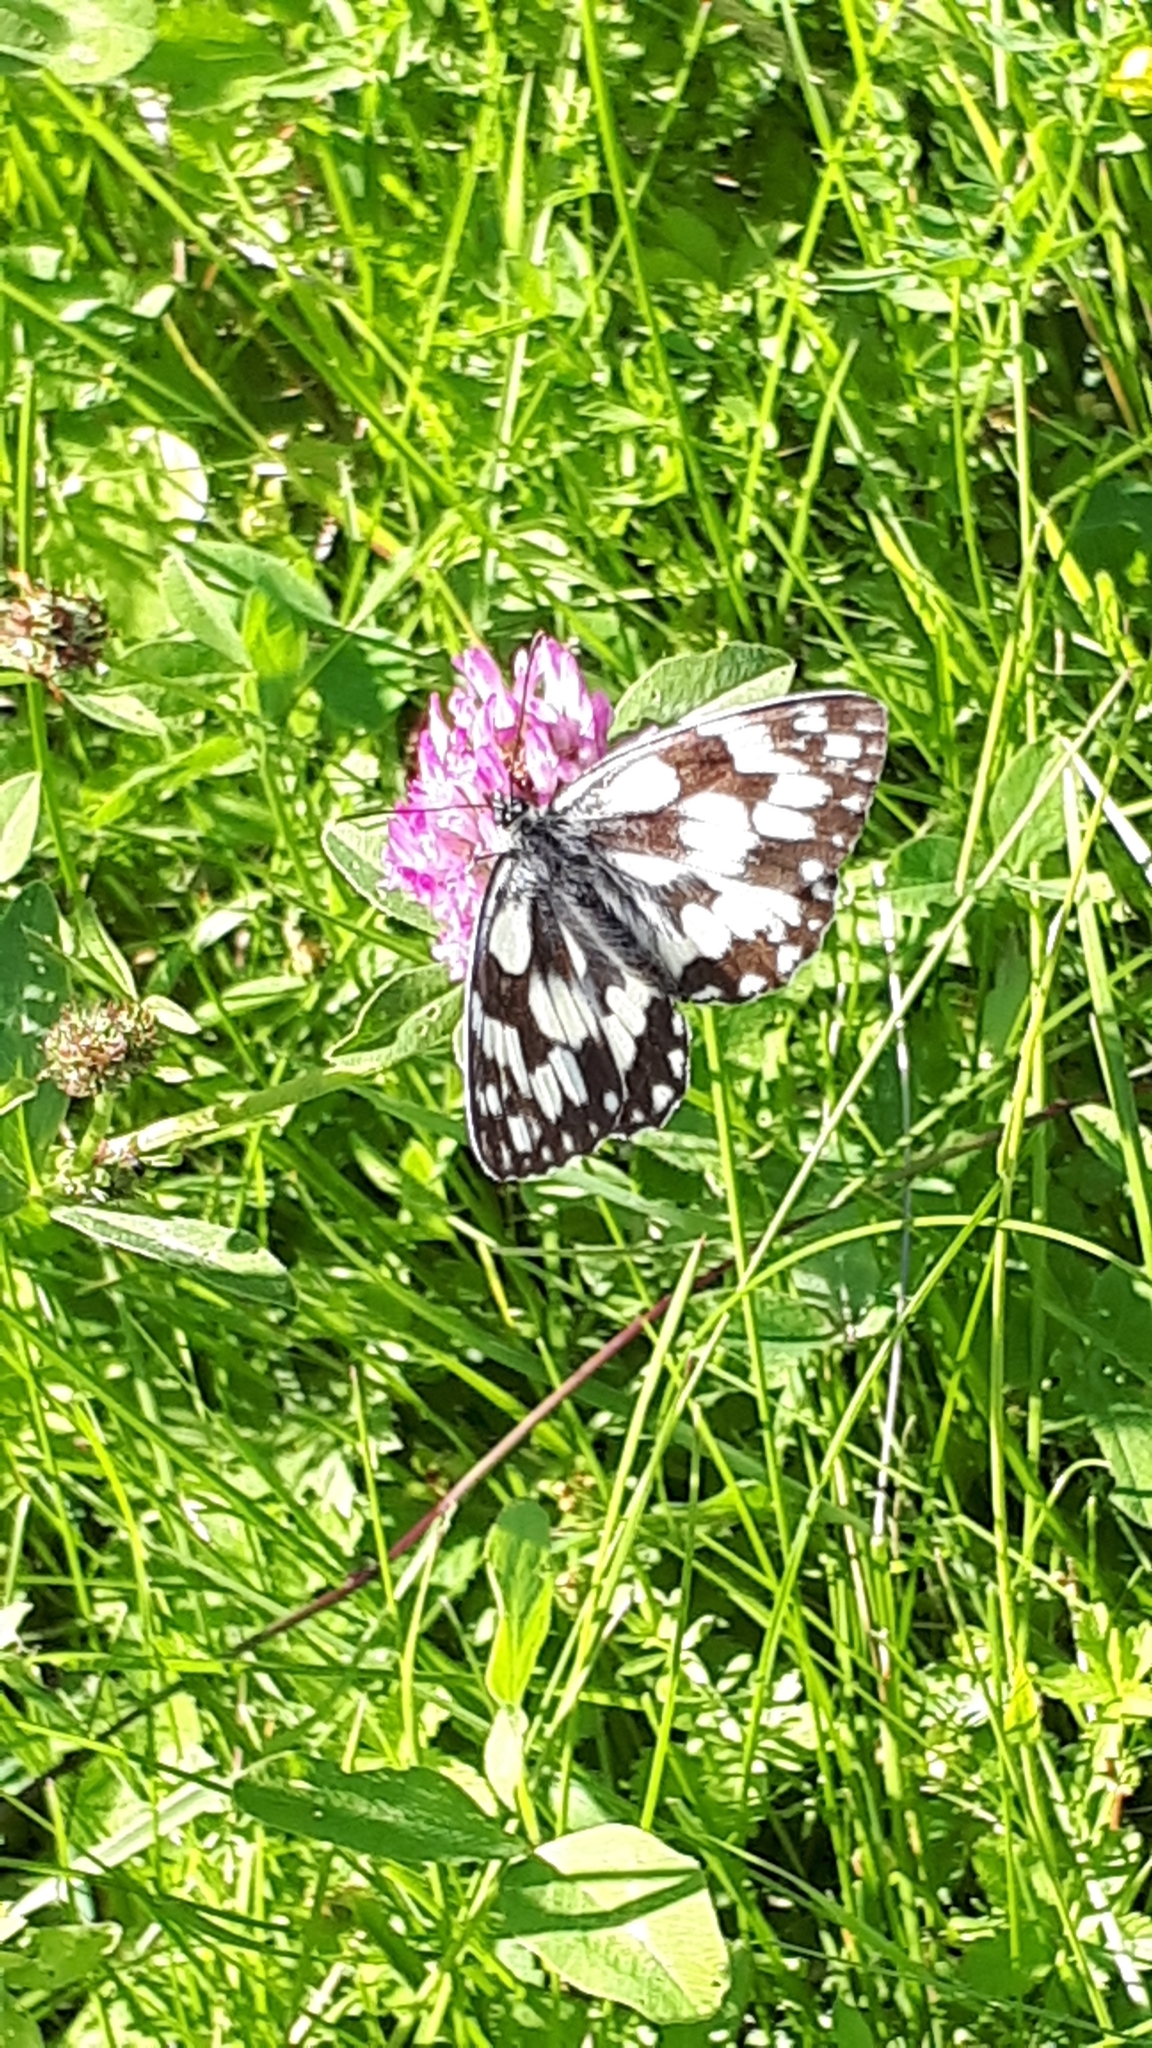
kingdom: Animalia
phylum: Arthropoda
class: Insecta
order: Lepidoptera
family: Nymphalidae
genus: Melanargia
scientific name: Melanargia galathea
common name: Marbled white
